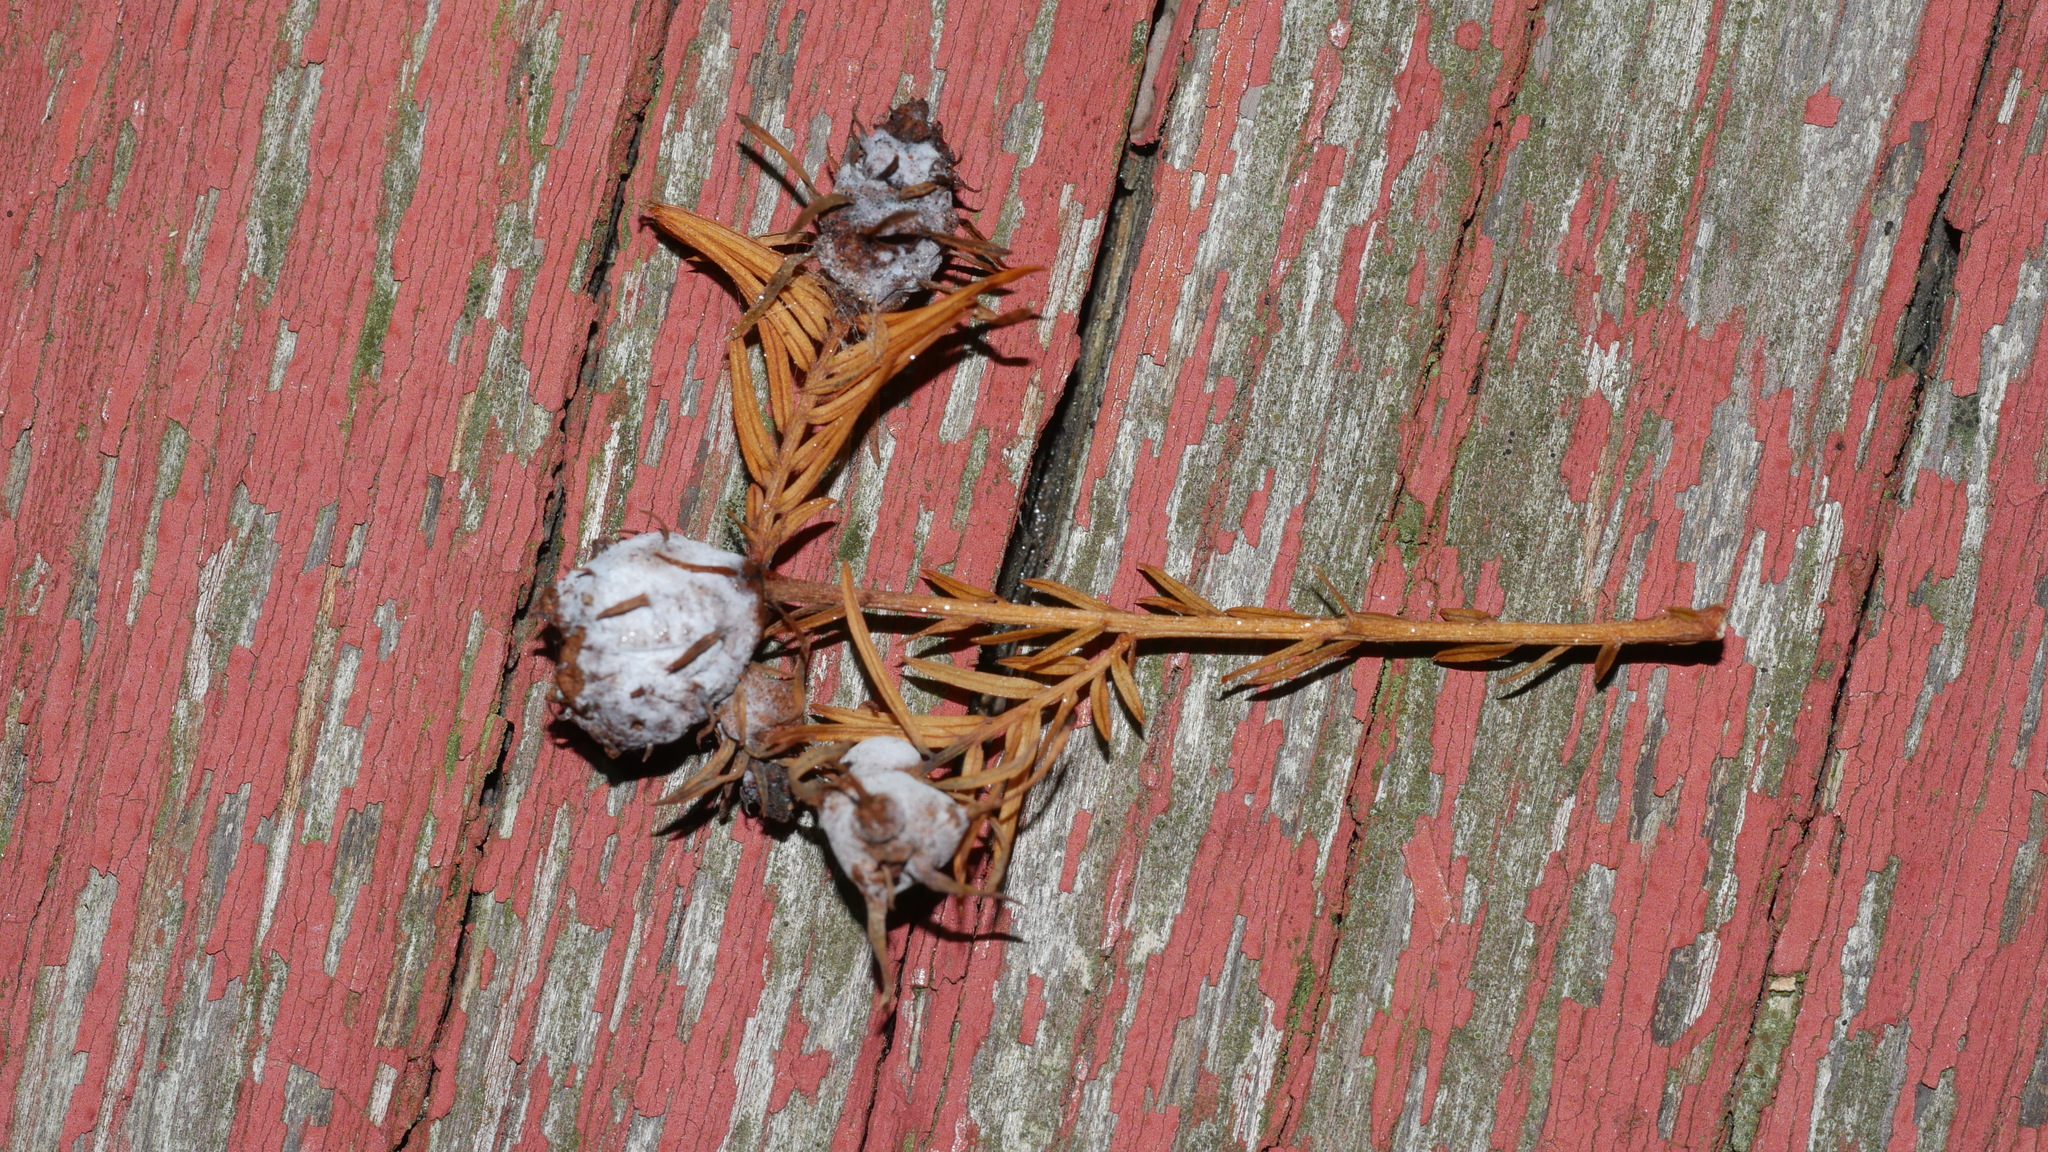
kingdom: Animalia
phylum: Arthropoda
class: Insecta
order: Diptera
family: Cecidomyiidae
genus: Taxodiomyia
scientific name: Taxodiomyia cupressiananassa
